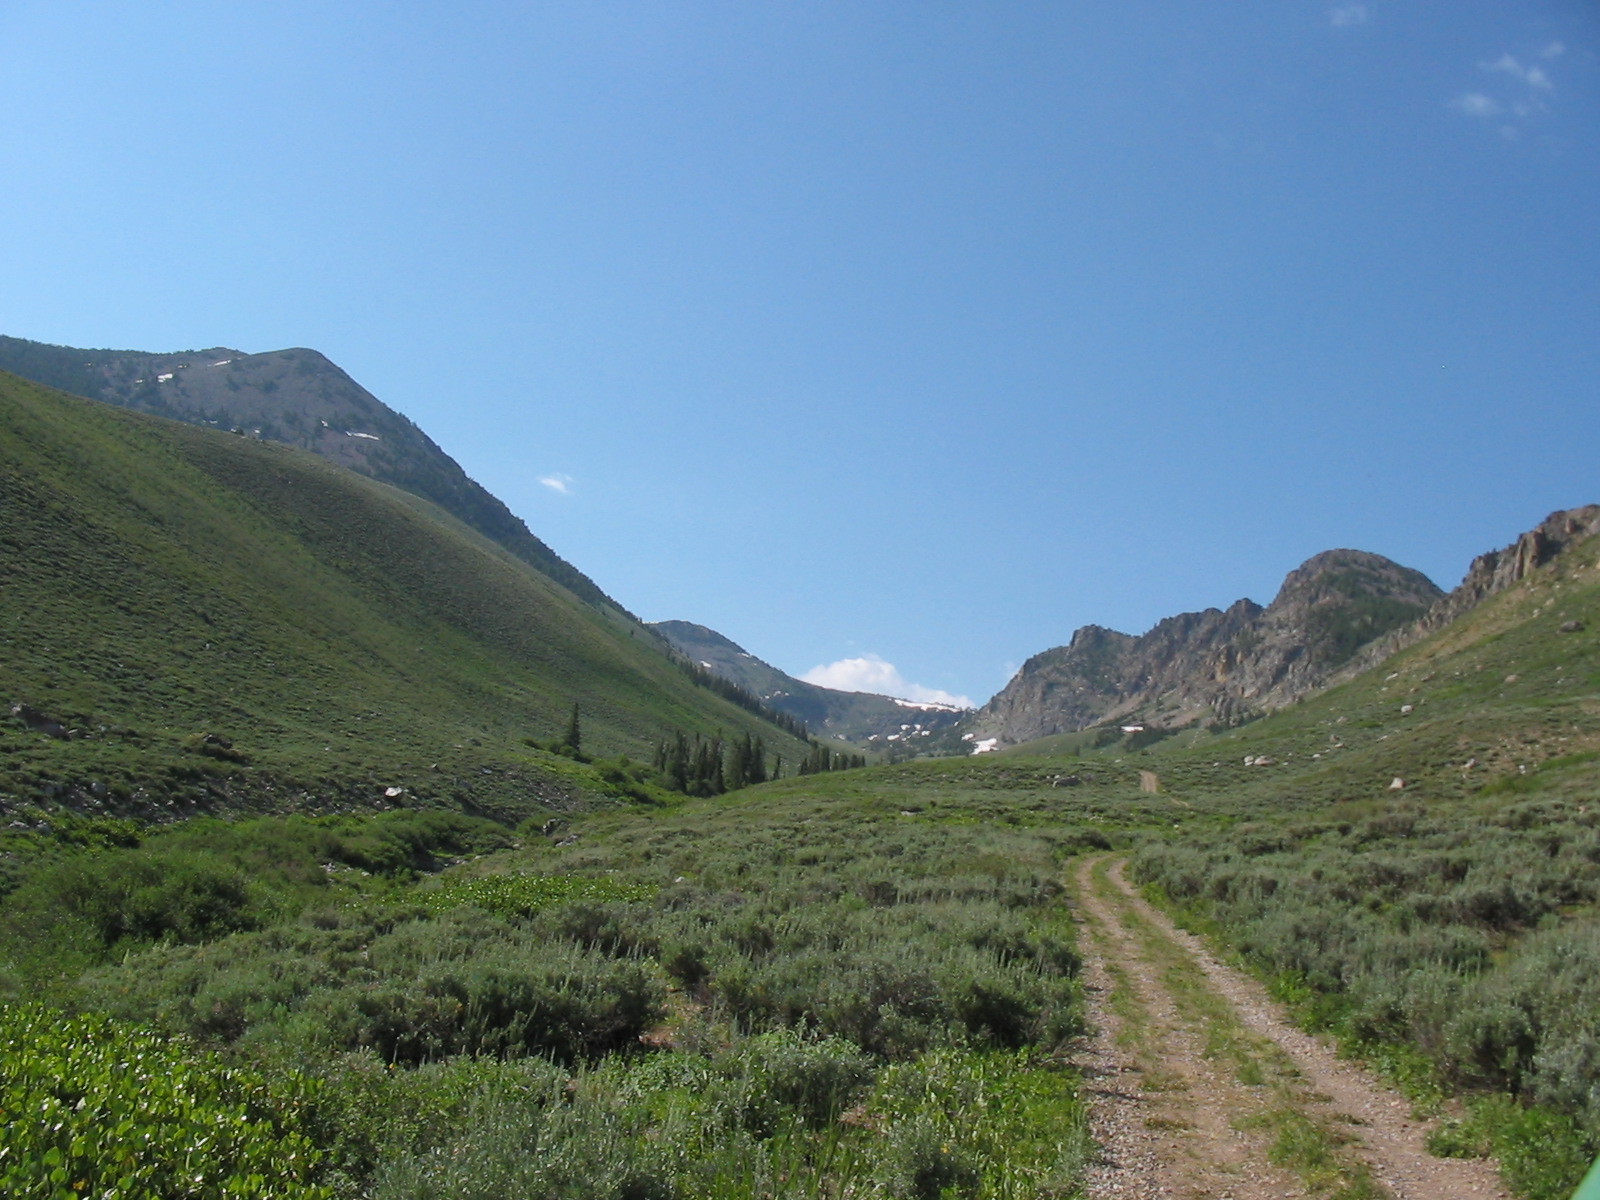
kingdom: Plantae
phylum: Tracheophyta
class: Magnoliopsida
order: Asterales
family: Asteraceae
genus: Artemisia
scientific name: Artemisia tridentata
